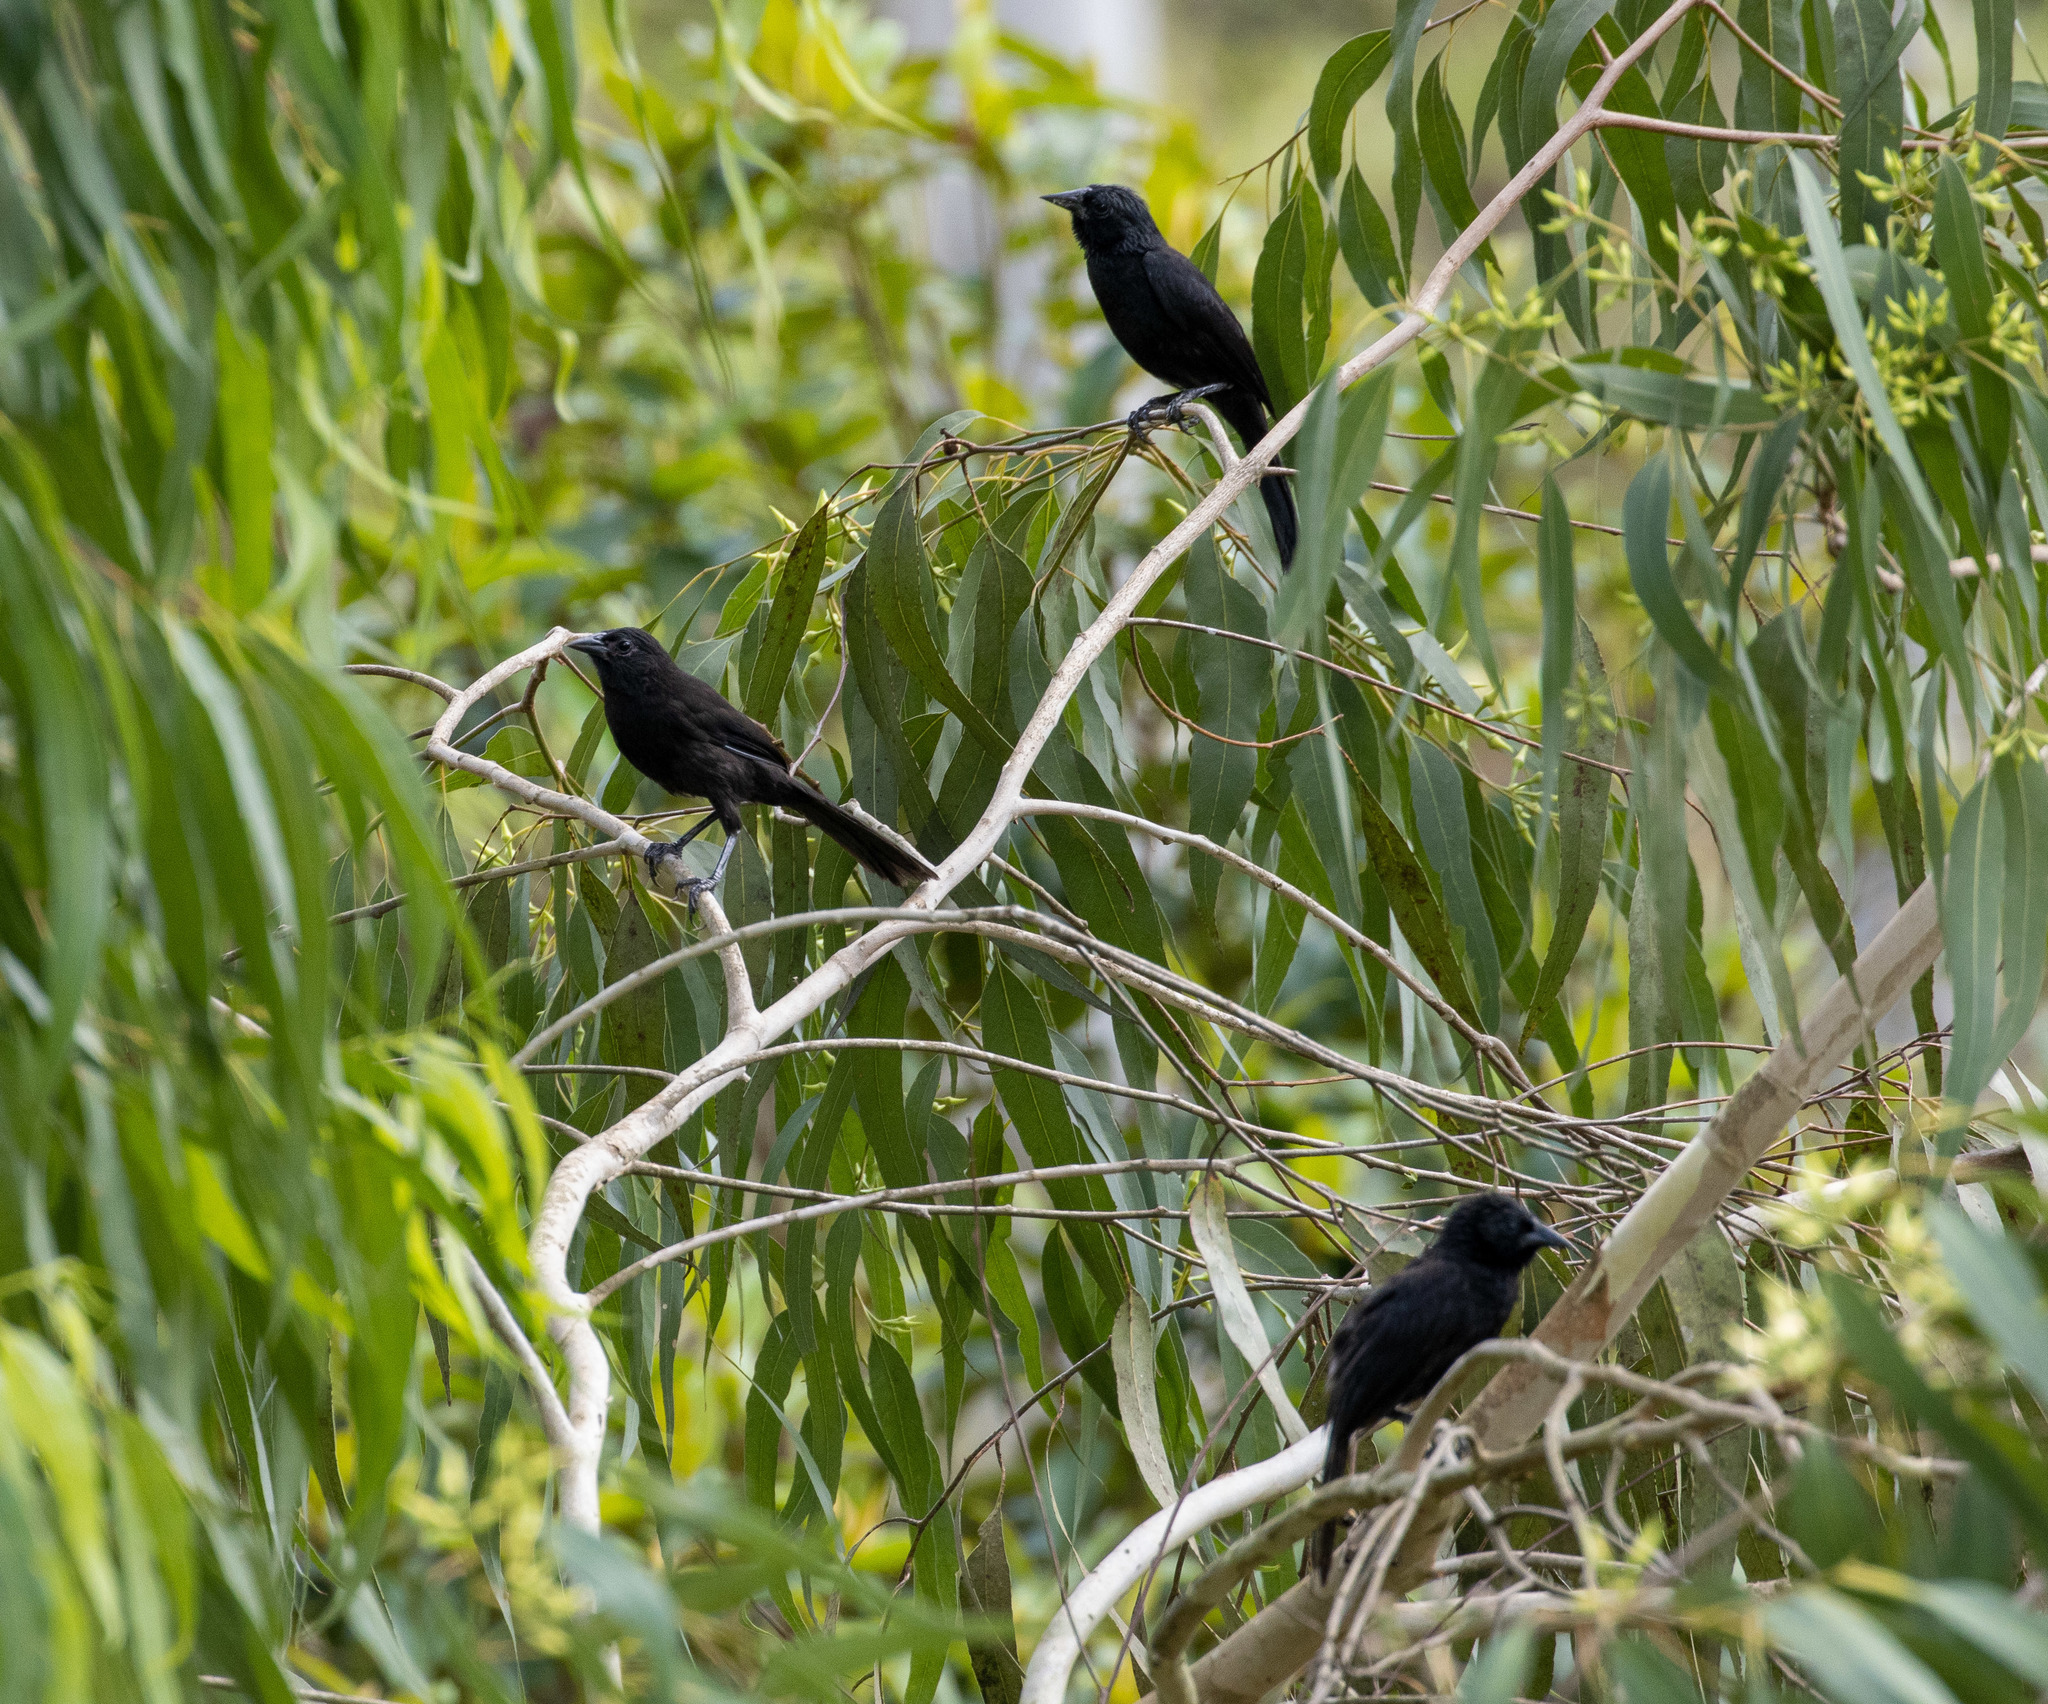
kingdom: Animalia
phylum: Chordata
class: Aves
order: Passeriformes
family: Icteridae
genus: Curaeus
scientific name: Curaeus forbesi
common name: Forbes's blackbird
